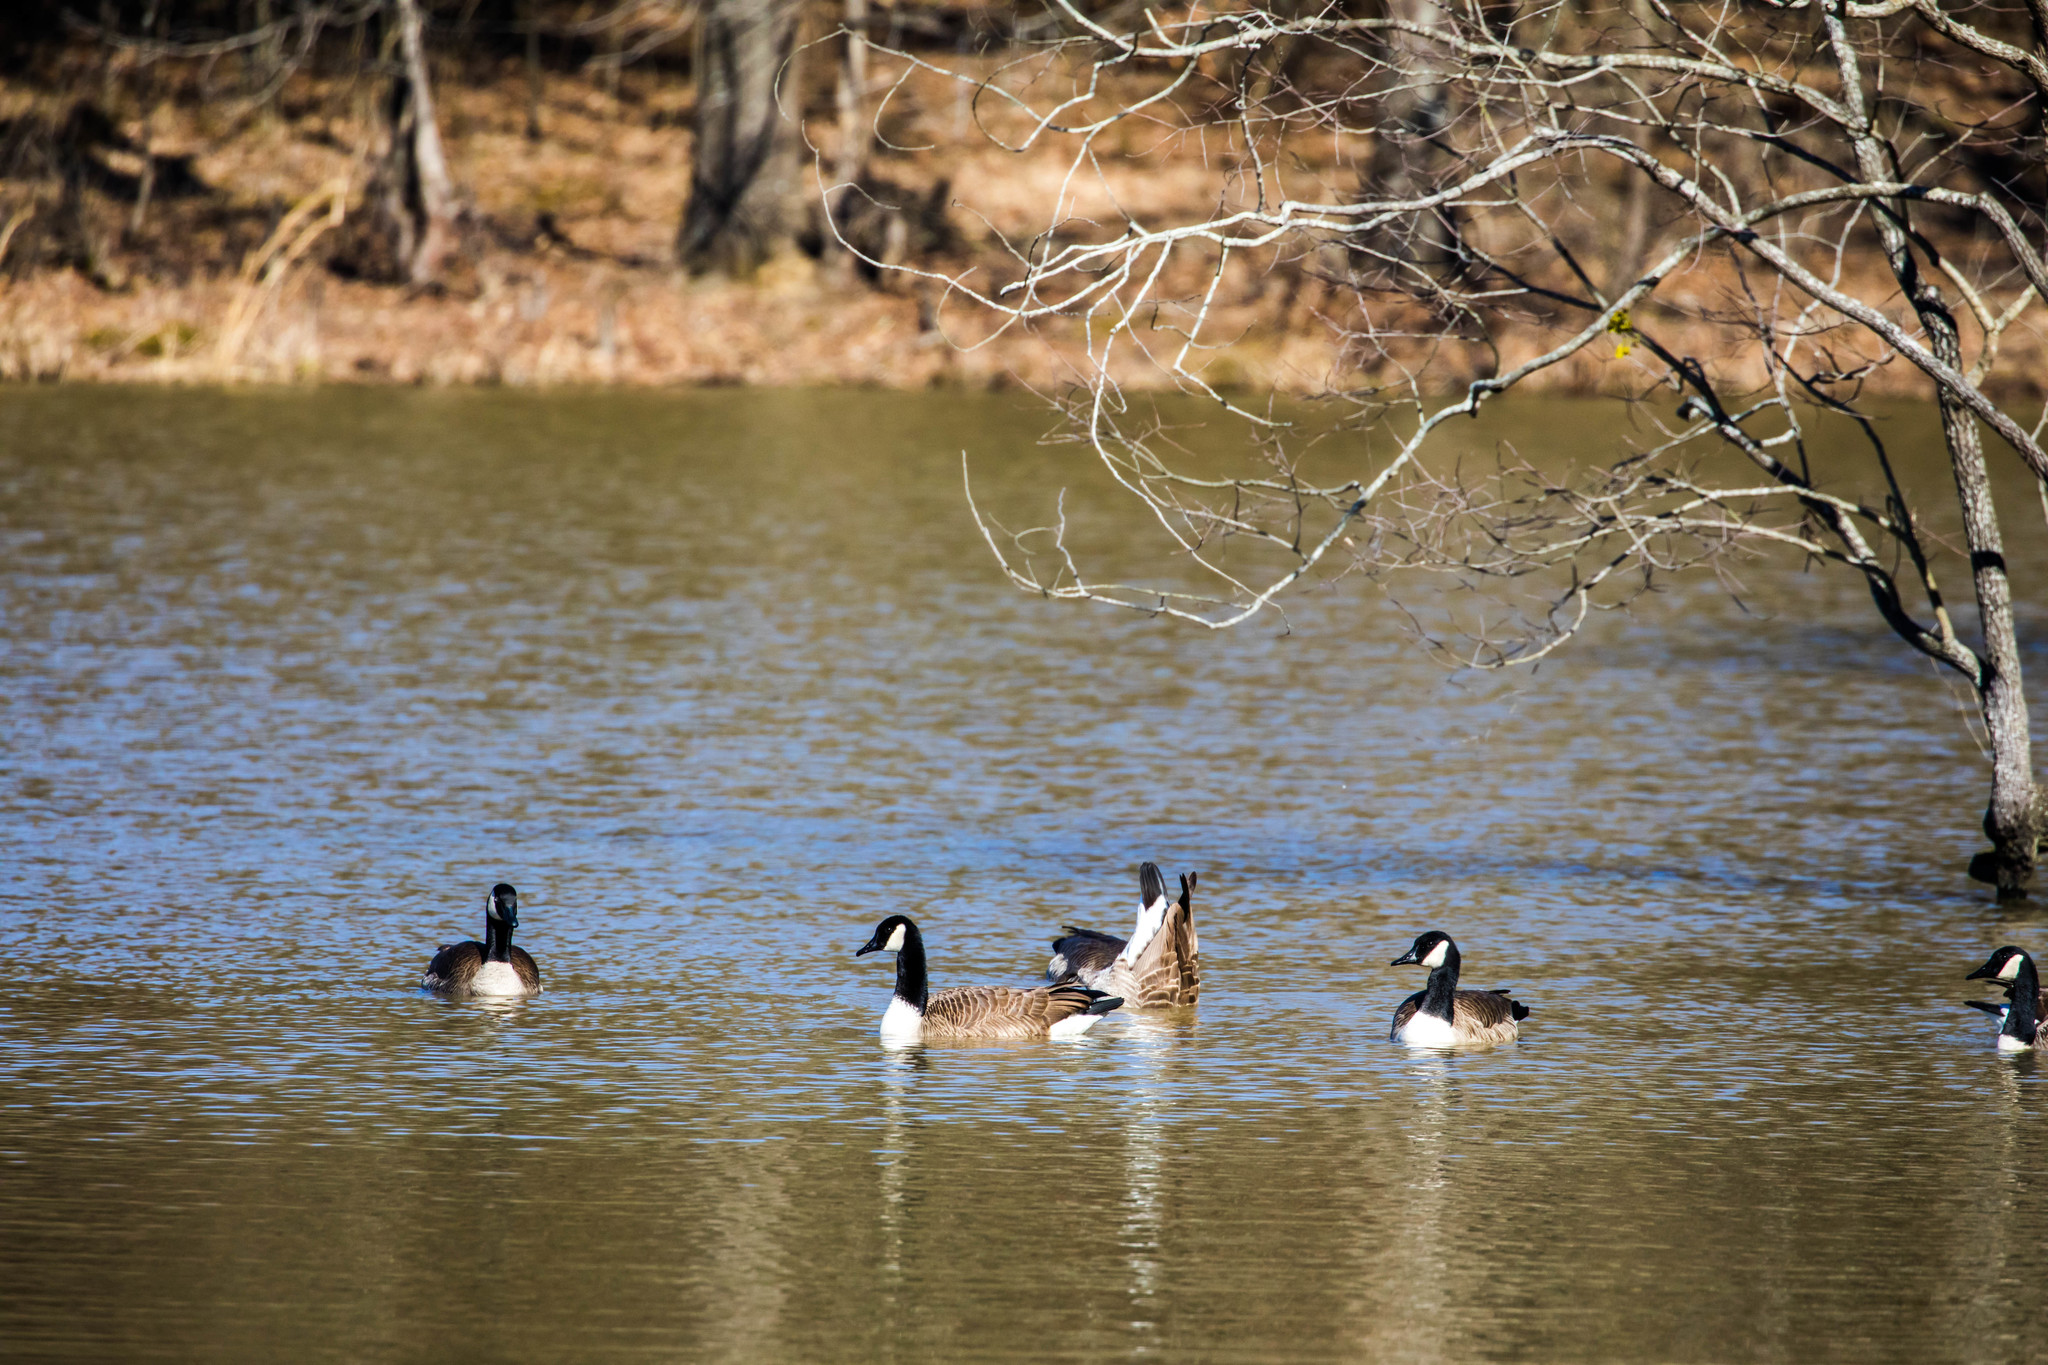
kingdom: Animalia
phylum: Chordata
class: Aves
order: Anseriformes
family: Anatidae
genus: Branta
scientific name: Branta canadensis
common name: Canada goose
